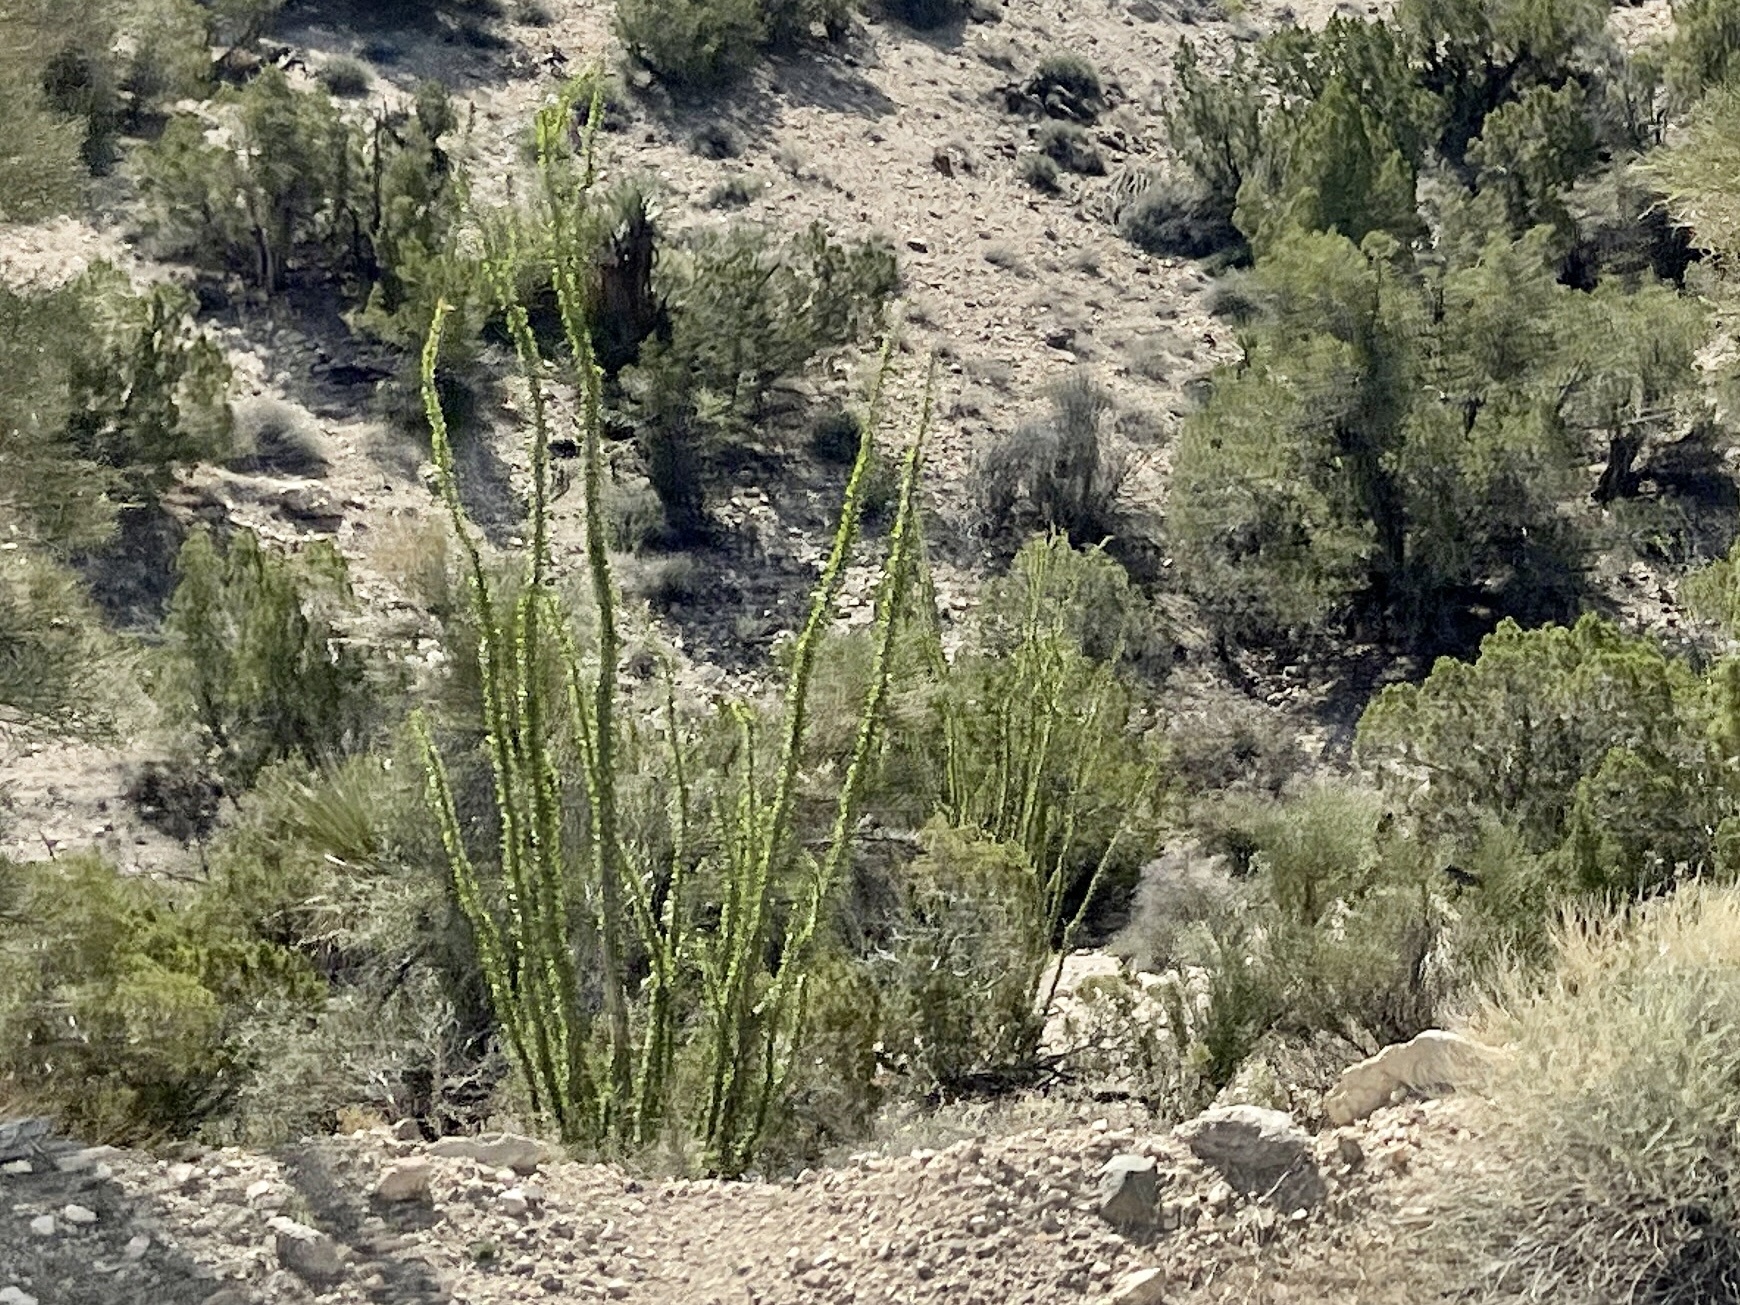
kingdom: Plantae
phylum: Tracheophyta
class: Magnoliopsida
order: Ericales
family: Fouquieriaceae
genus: Fouquieria
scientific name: Fouquieria splendens
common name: Vine-cactus
